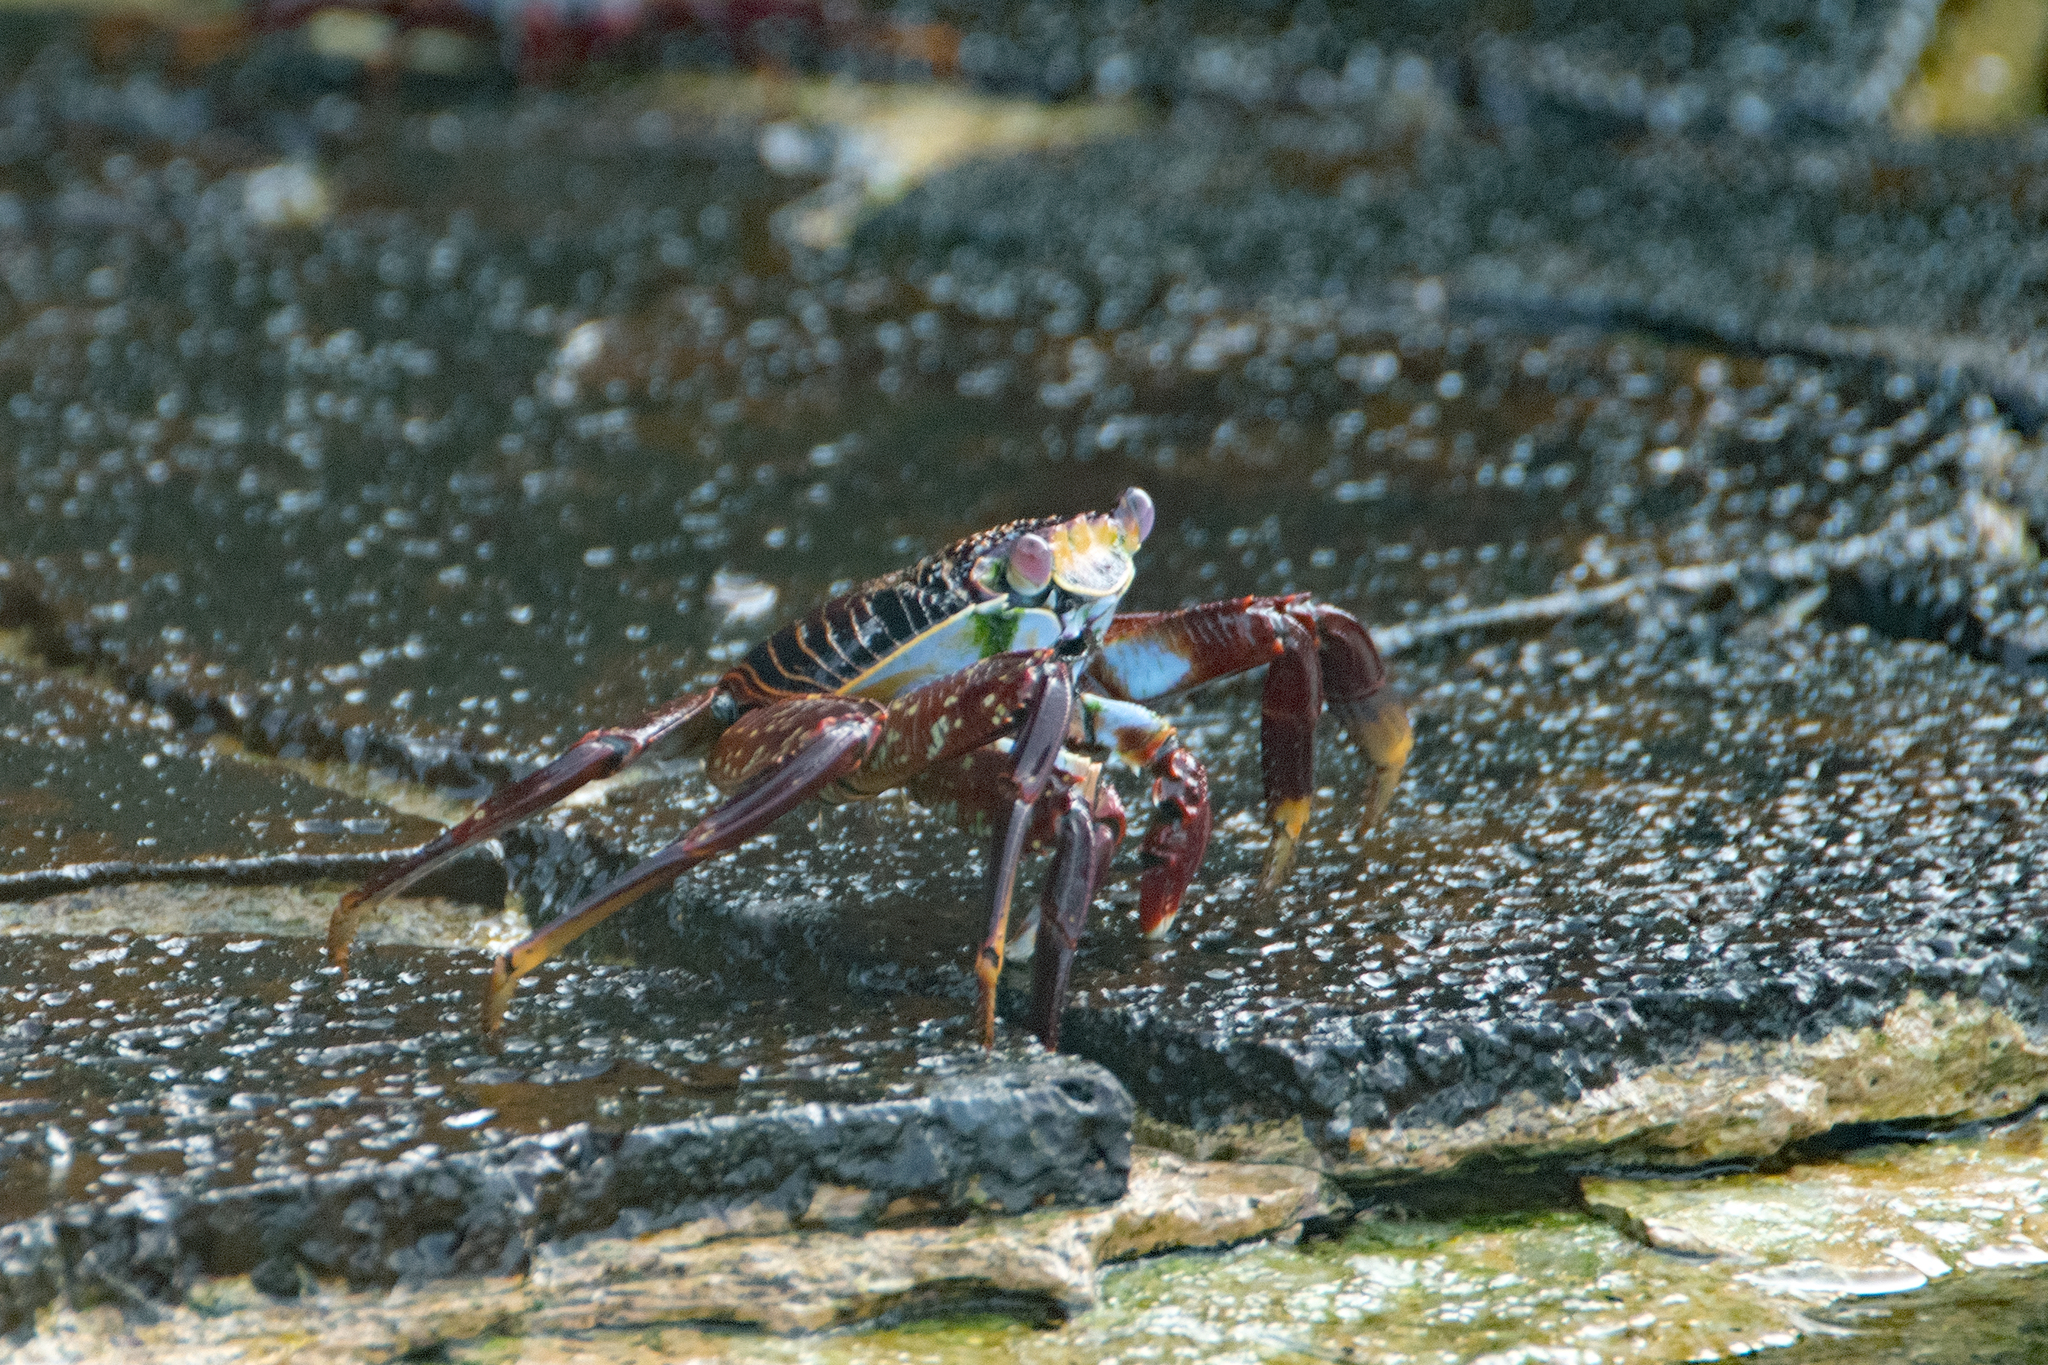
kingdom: Animalia
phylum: Arthropoda
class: Malacostraca
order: Decapoda
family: Grapsidae
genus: Grapsus
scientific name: Grapsus grapsus
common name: Sally lightfoot
